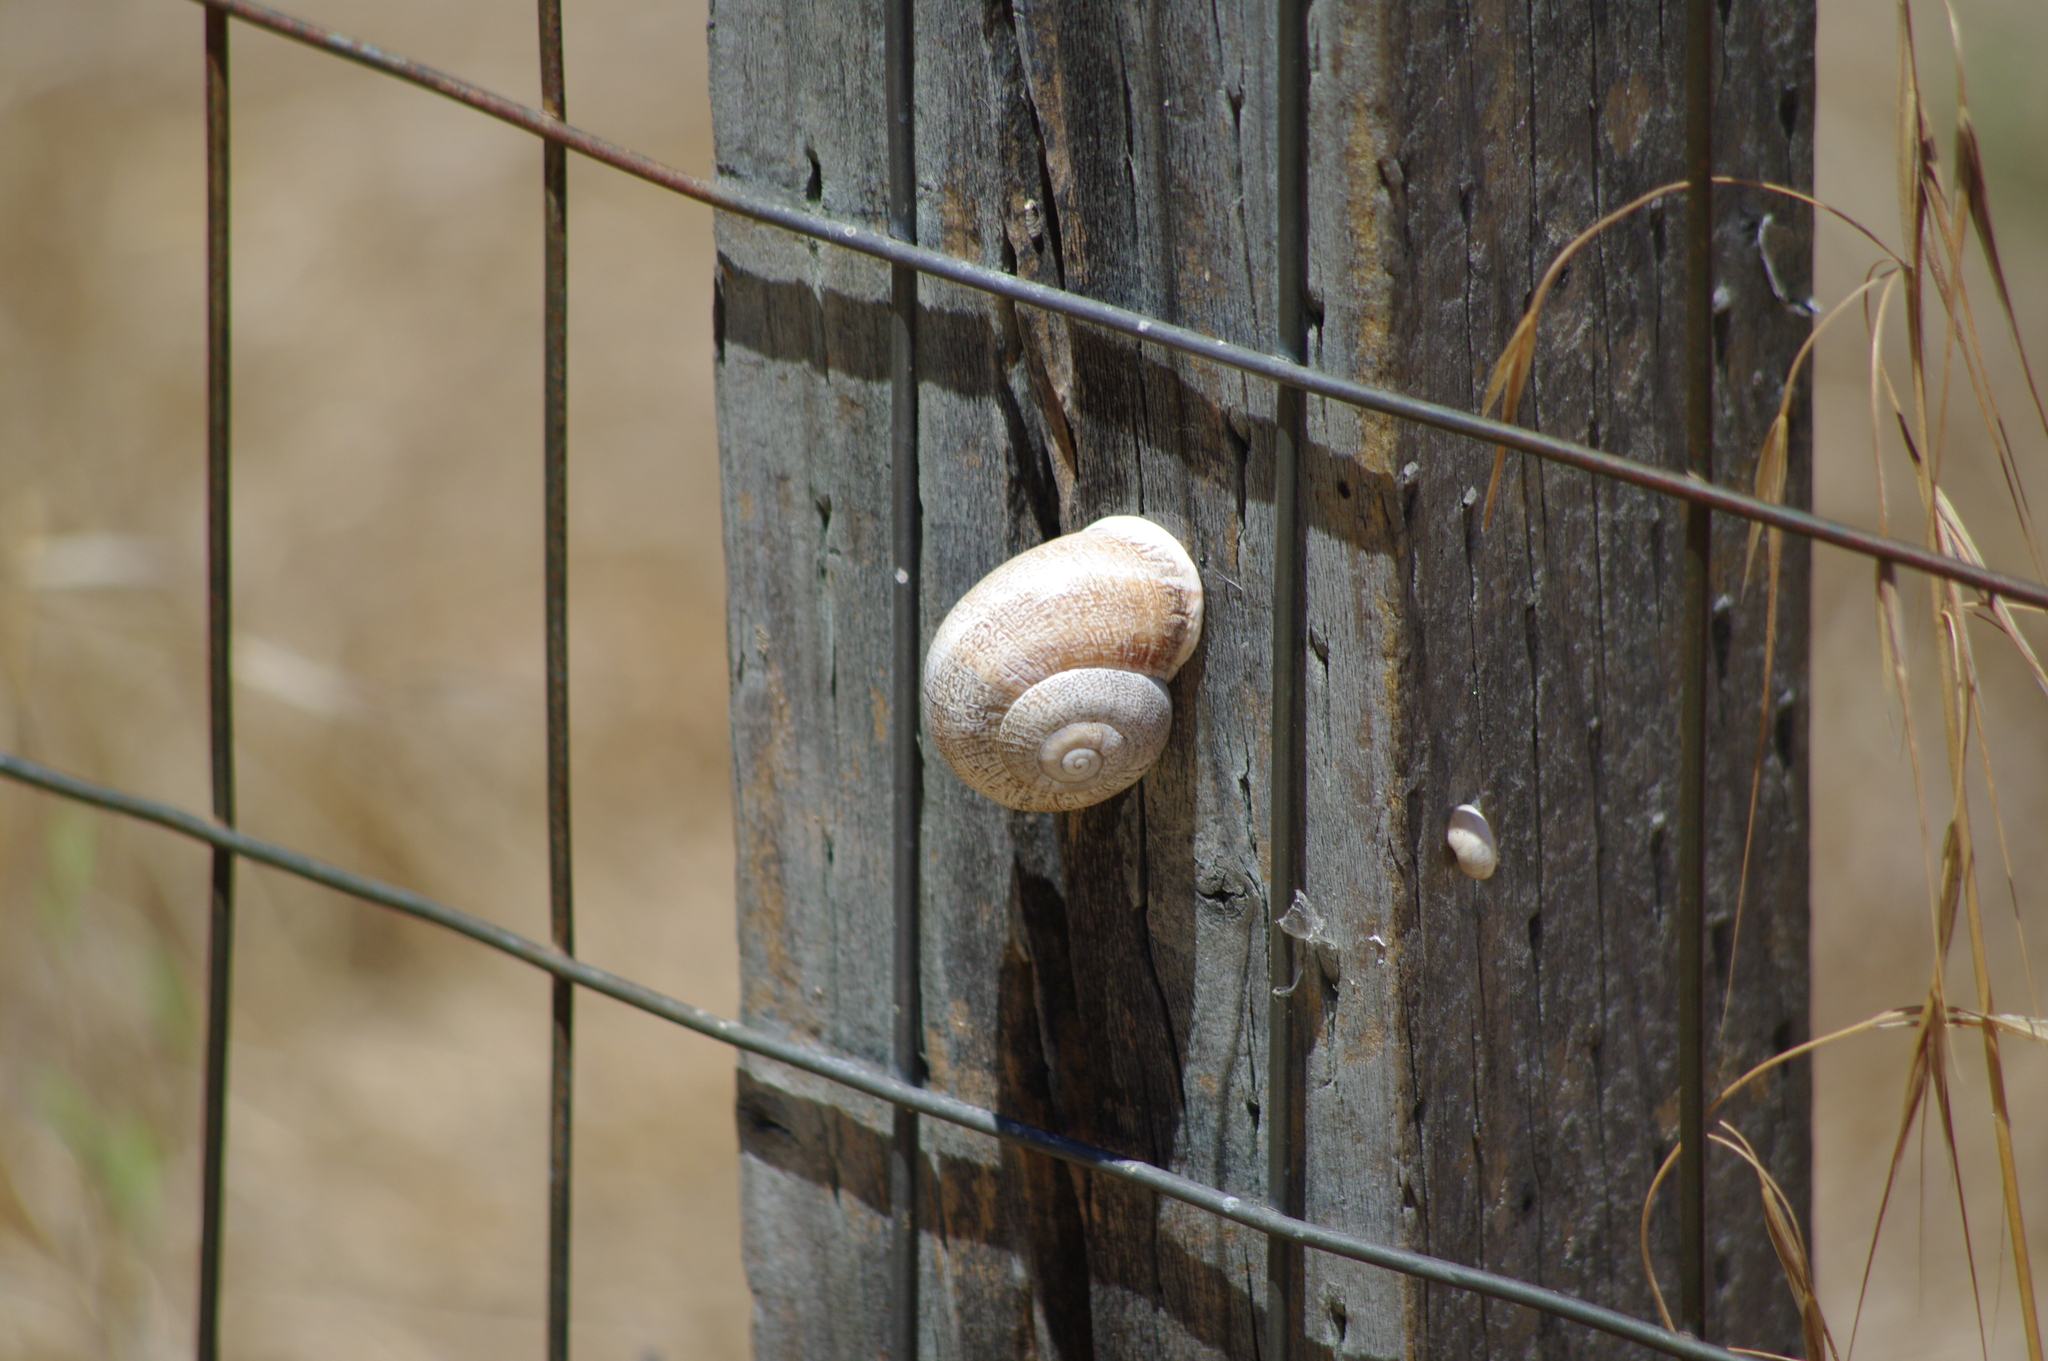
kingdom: Animalia
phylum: Mollusca
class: Gastropoda
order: Stylommatophora
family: Helicidae
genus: Otala
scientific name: Otala lactea
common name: Milk snail
